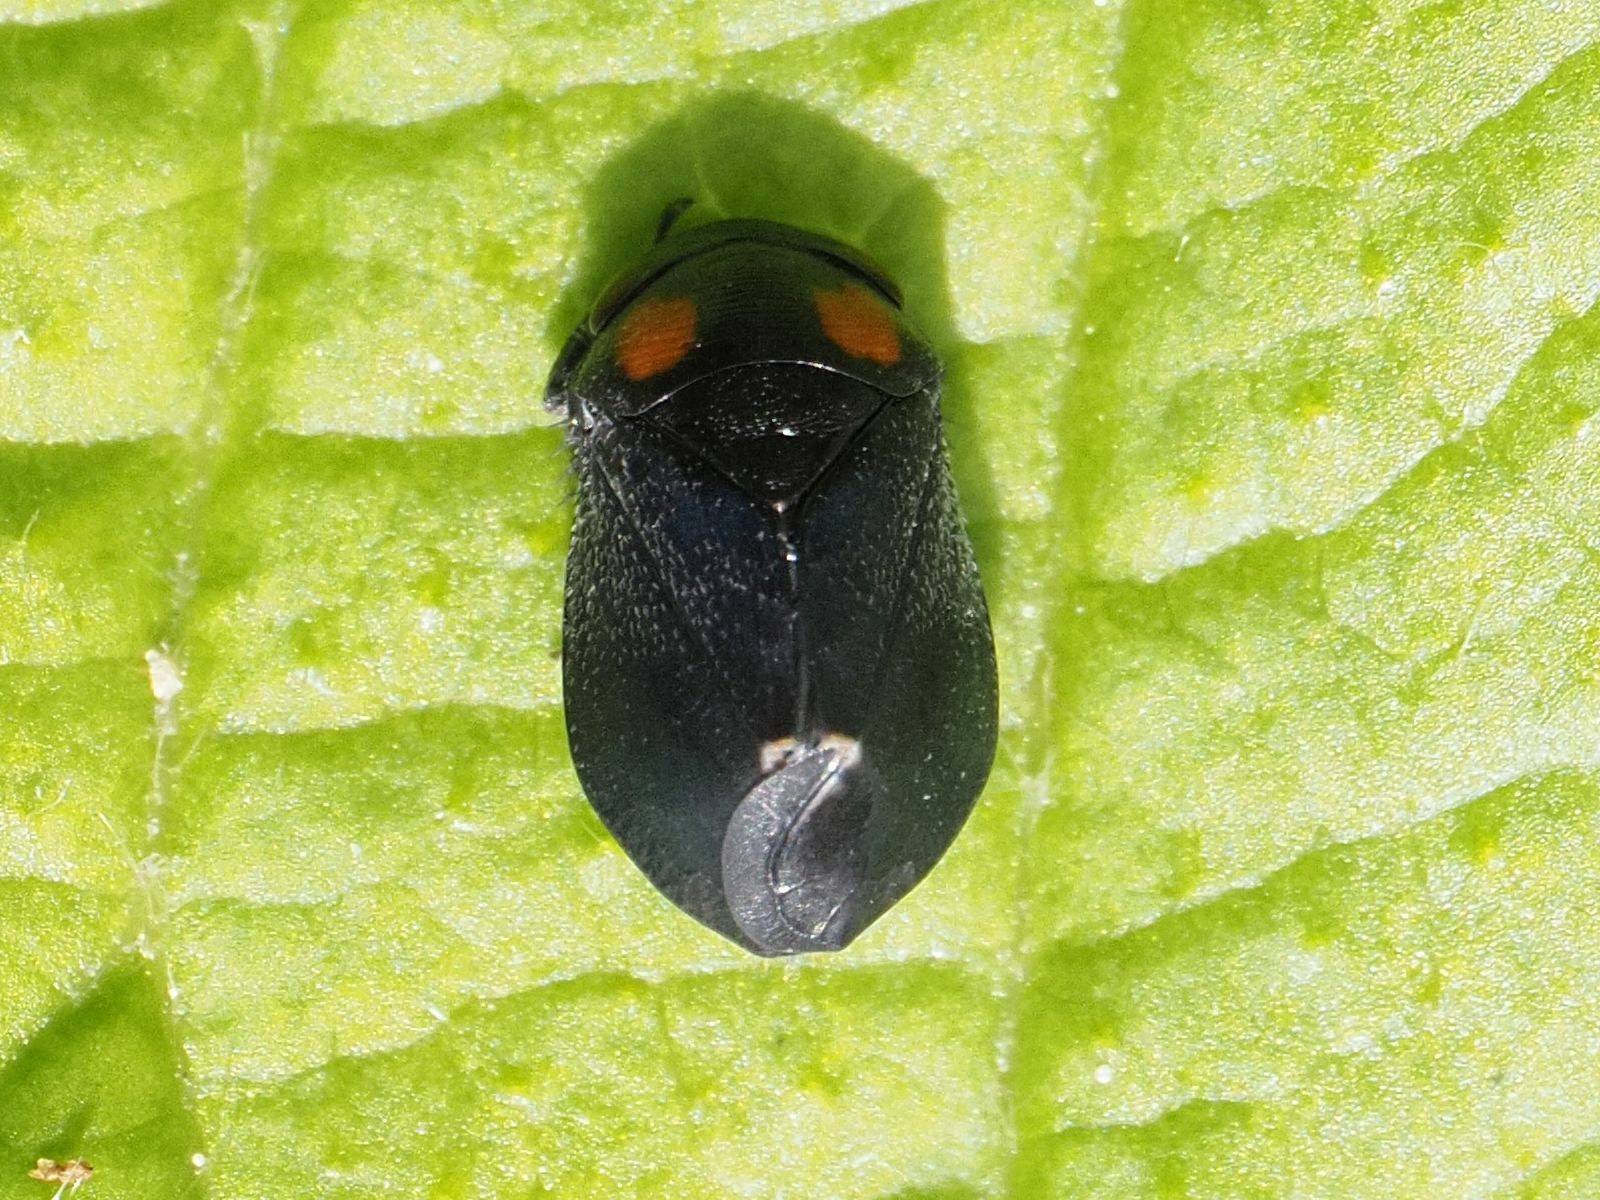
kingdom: Animalia
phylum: Arthropoda
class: Insecta
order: Hemiptera
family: Cicadellidae
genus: Penthimia
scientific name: Penthimia nigra
